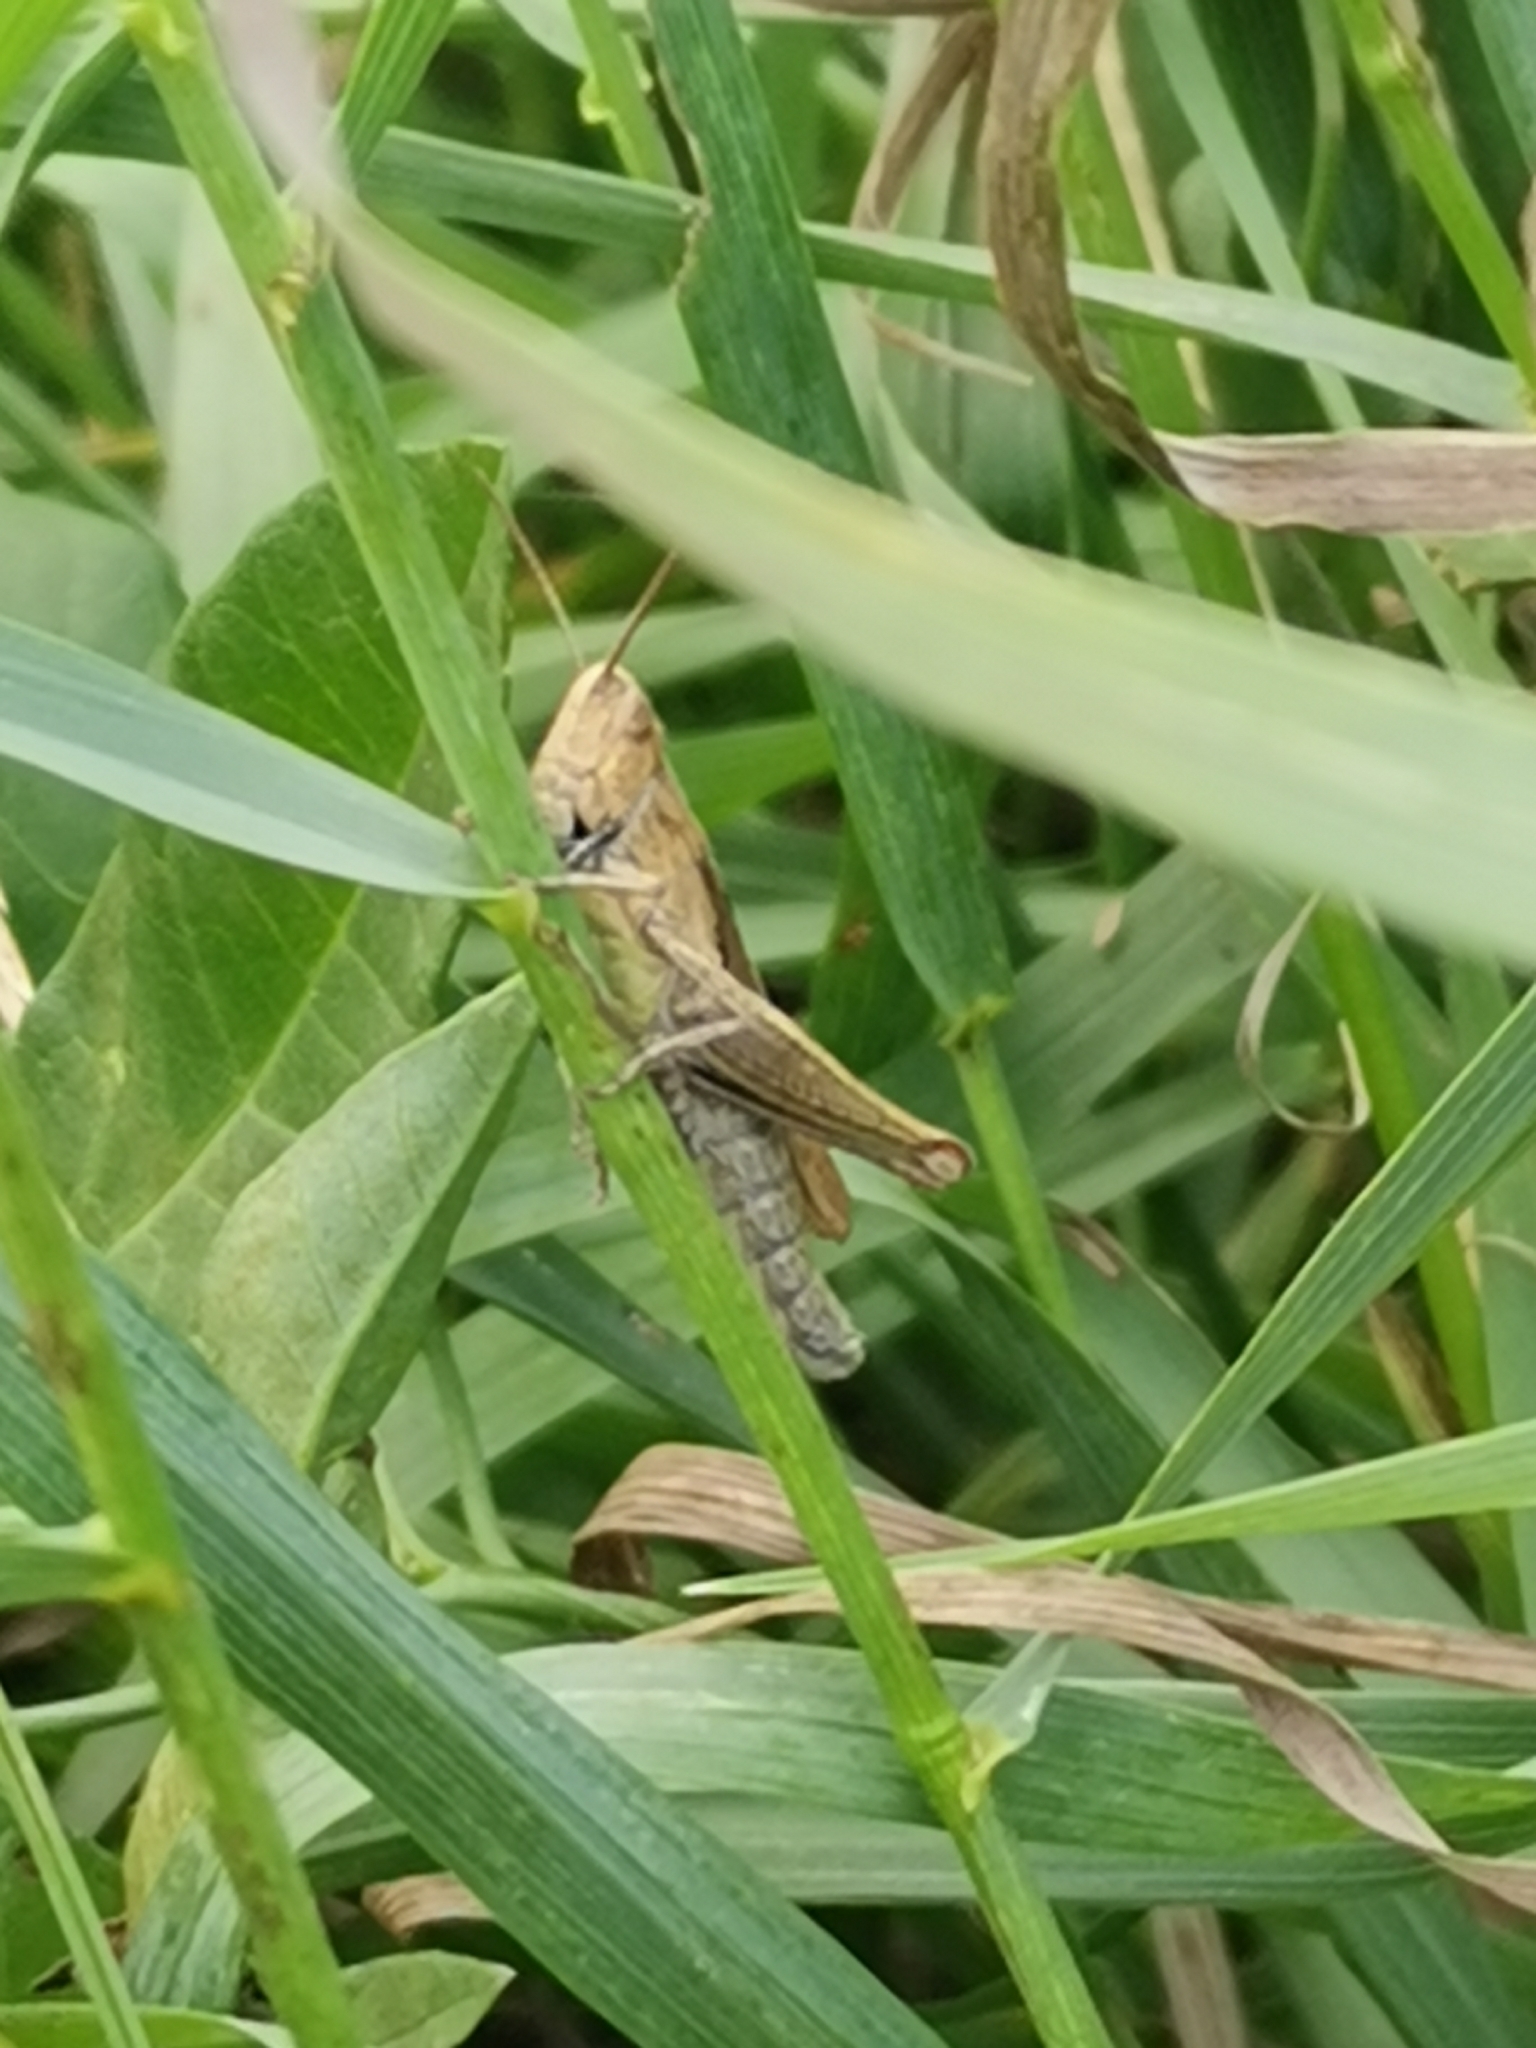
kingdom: Animalia
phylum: Arthropoda
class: Insecta
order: Orthoptera
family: Acrididae
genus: Chorthippus
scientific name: Chorthippus dorsatus
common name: Steppe grasshopper
